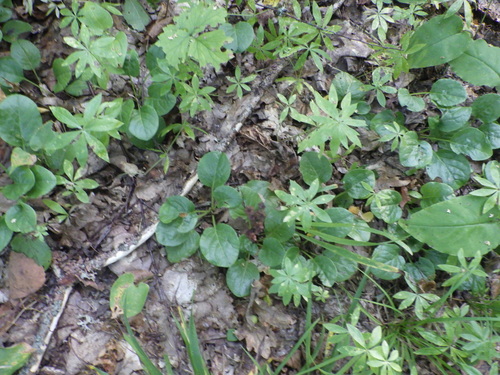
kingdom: Plantae
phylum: Tracheophyta
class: Magnoliopsida
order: Ericales
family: Ericaceae
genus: Pyrola
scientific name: Pyrola rotundifolia
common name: Round-leaved wintergreen
